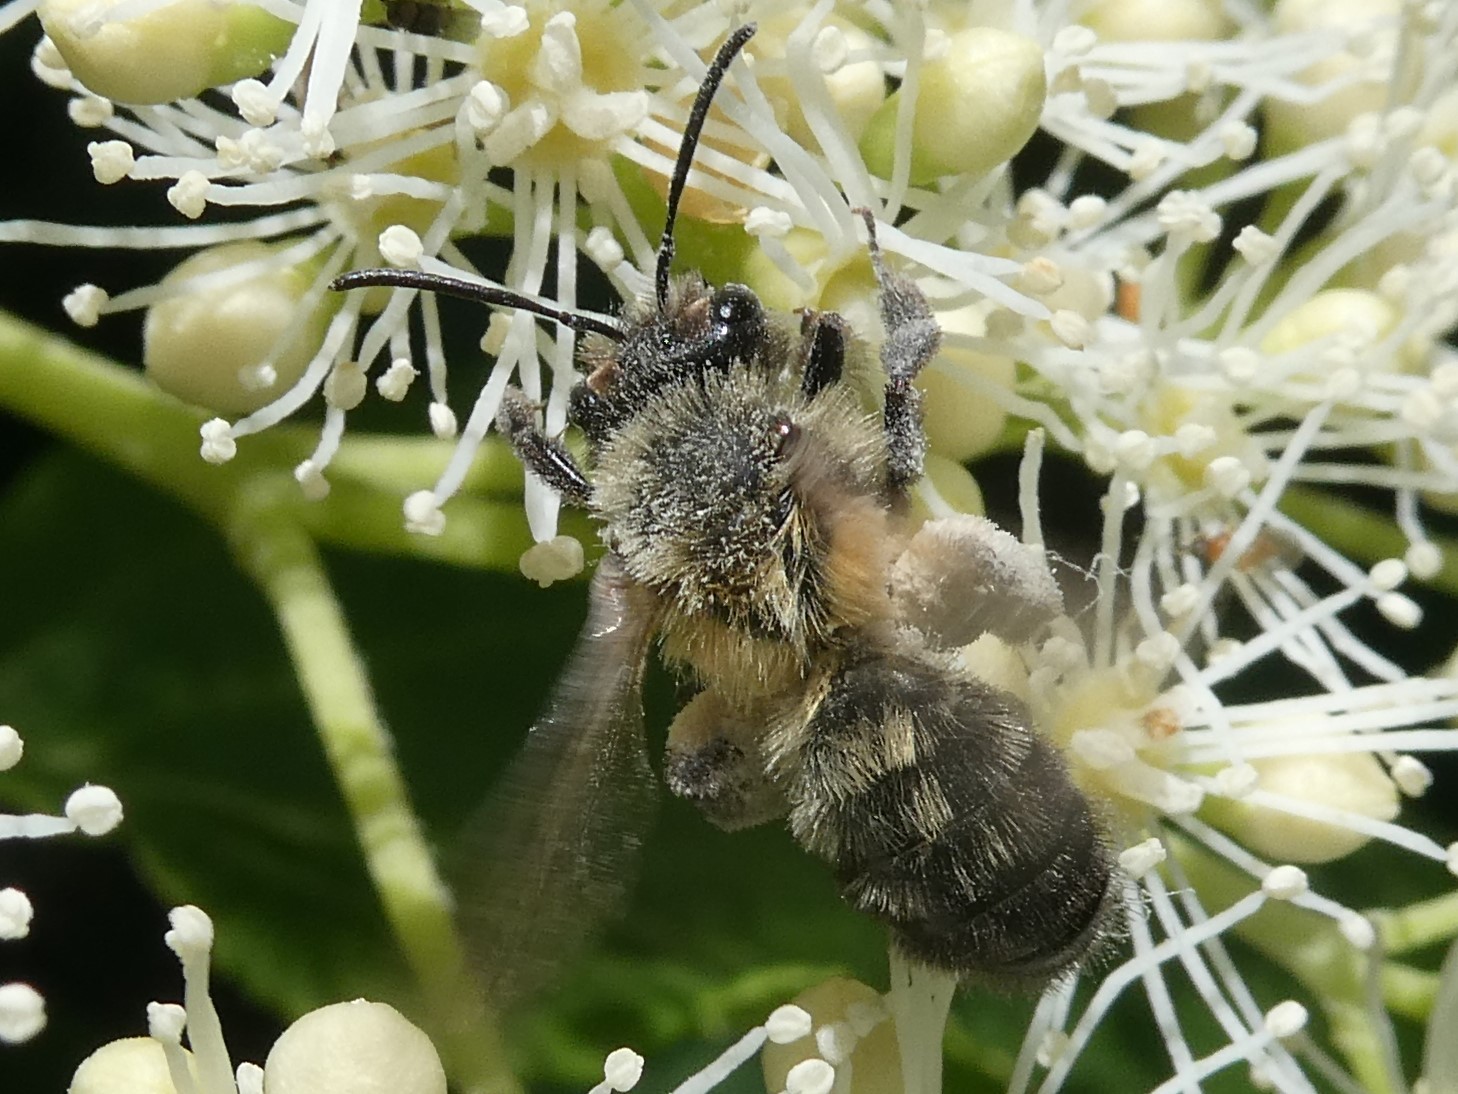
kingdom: Animalia
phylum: Arthropoda
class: Insecta
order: Hymenoptera
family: Andrenidae
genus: Andrena
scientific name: Andrena milwaukeensis
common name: Milwaukee mining bee
